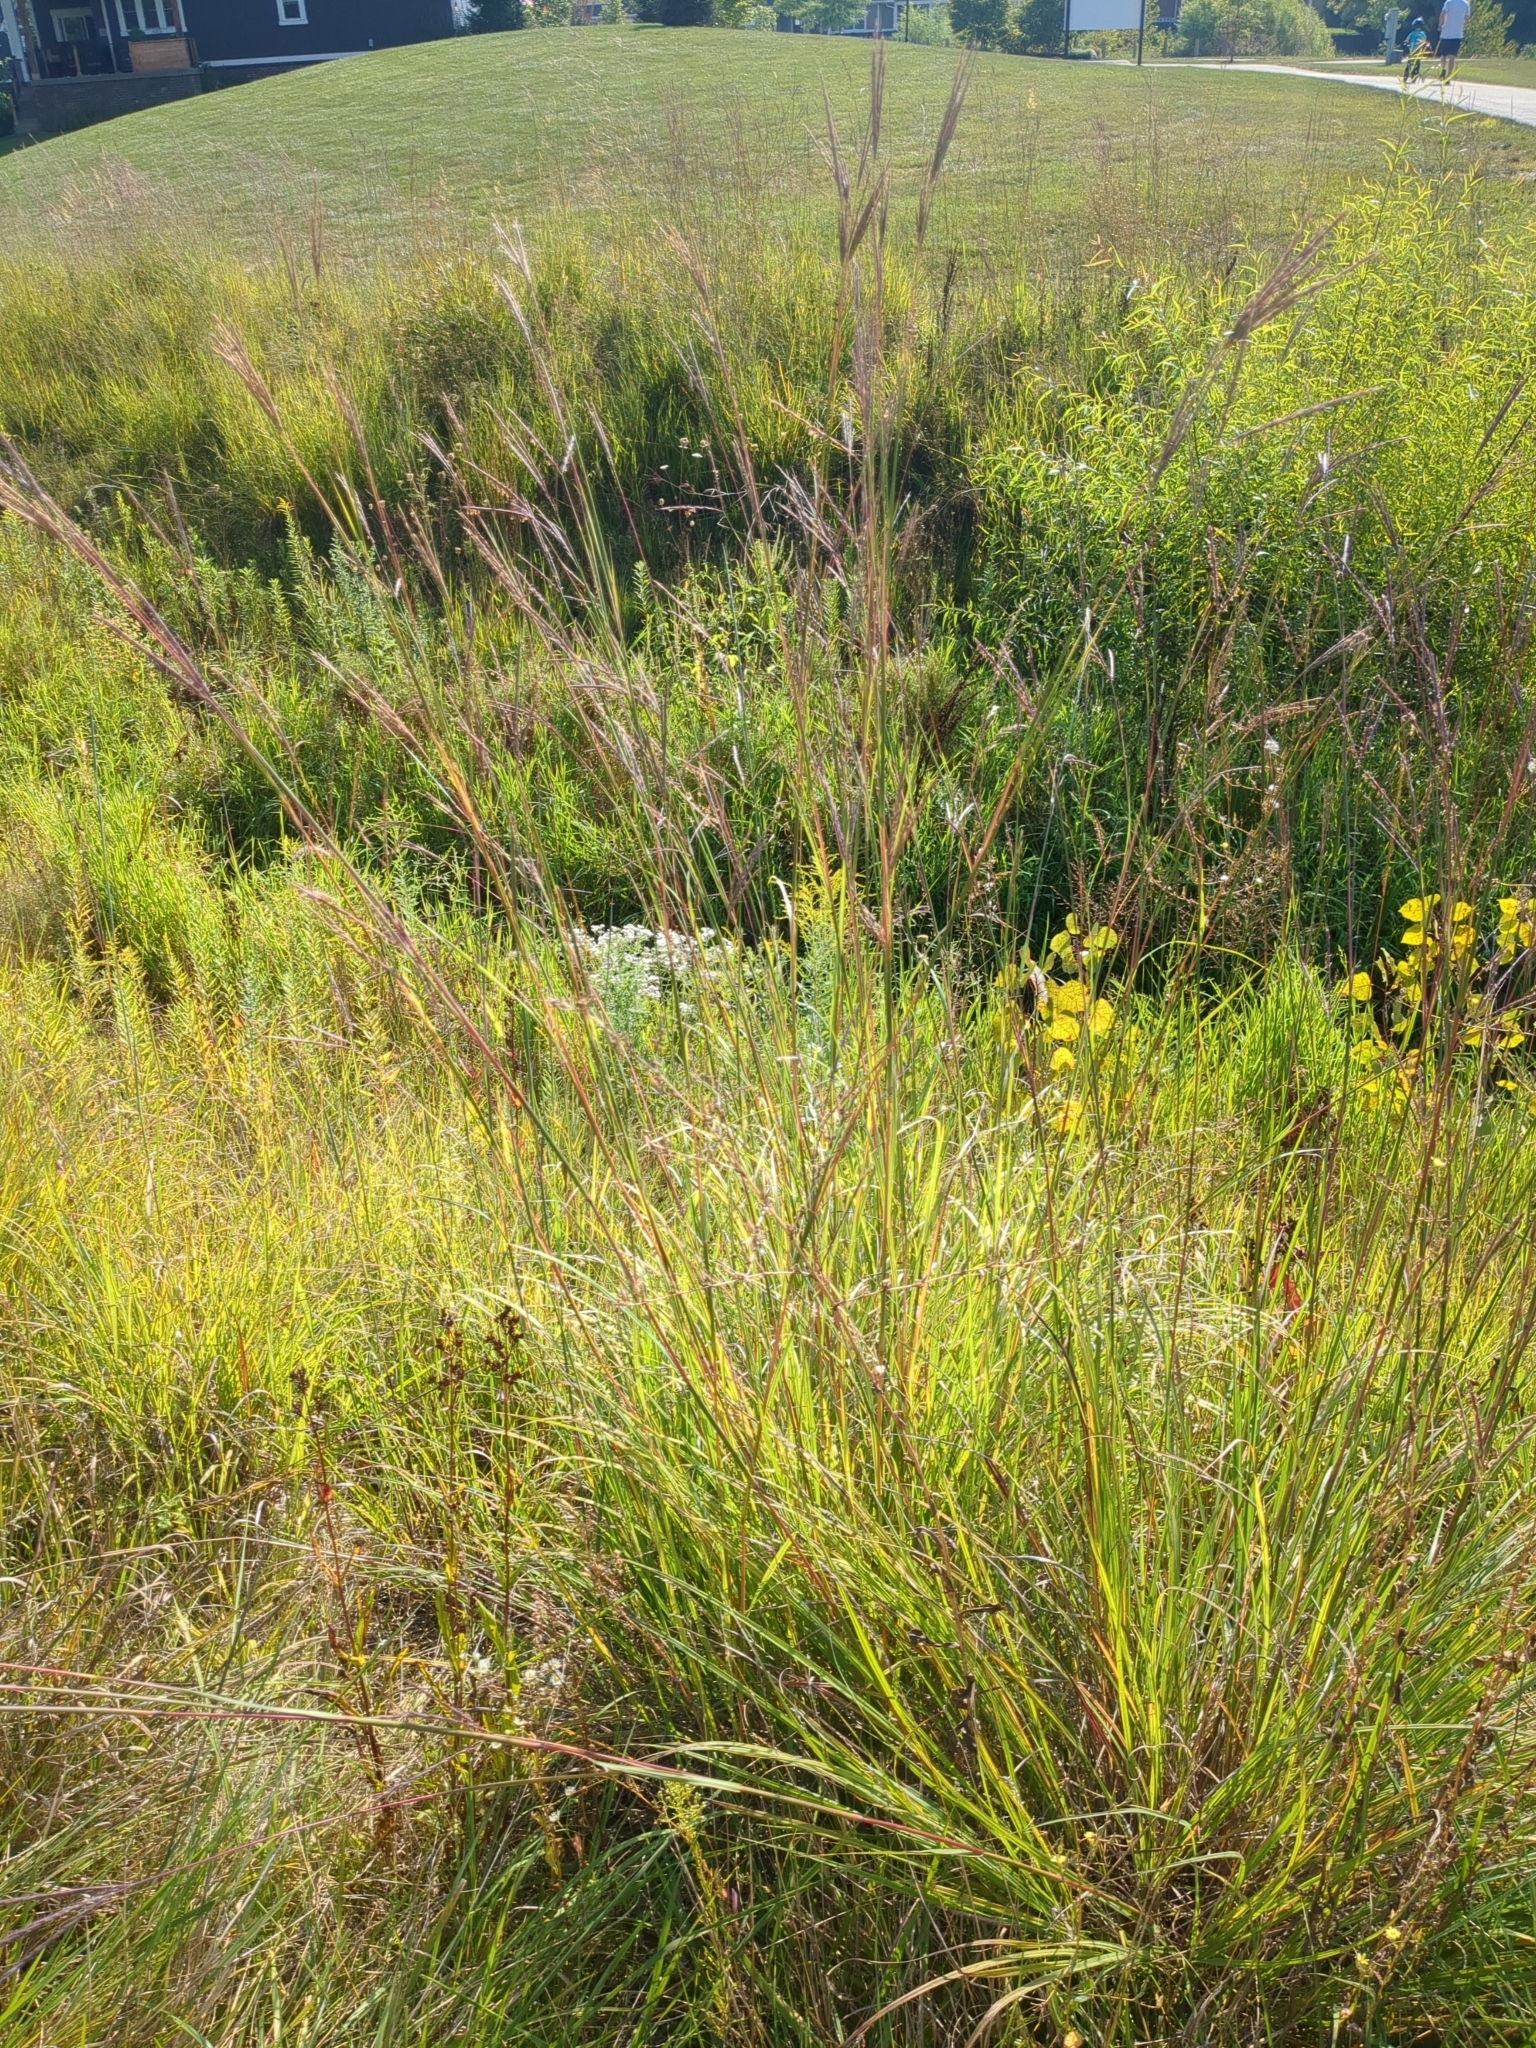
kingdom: Plantae
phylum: Tracheophyta
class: Liliopsida
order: Poales
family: Poaceae
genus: Andropogon
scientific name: Andropogon gerardi
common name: Big bluestem
